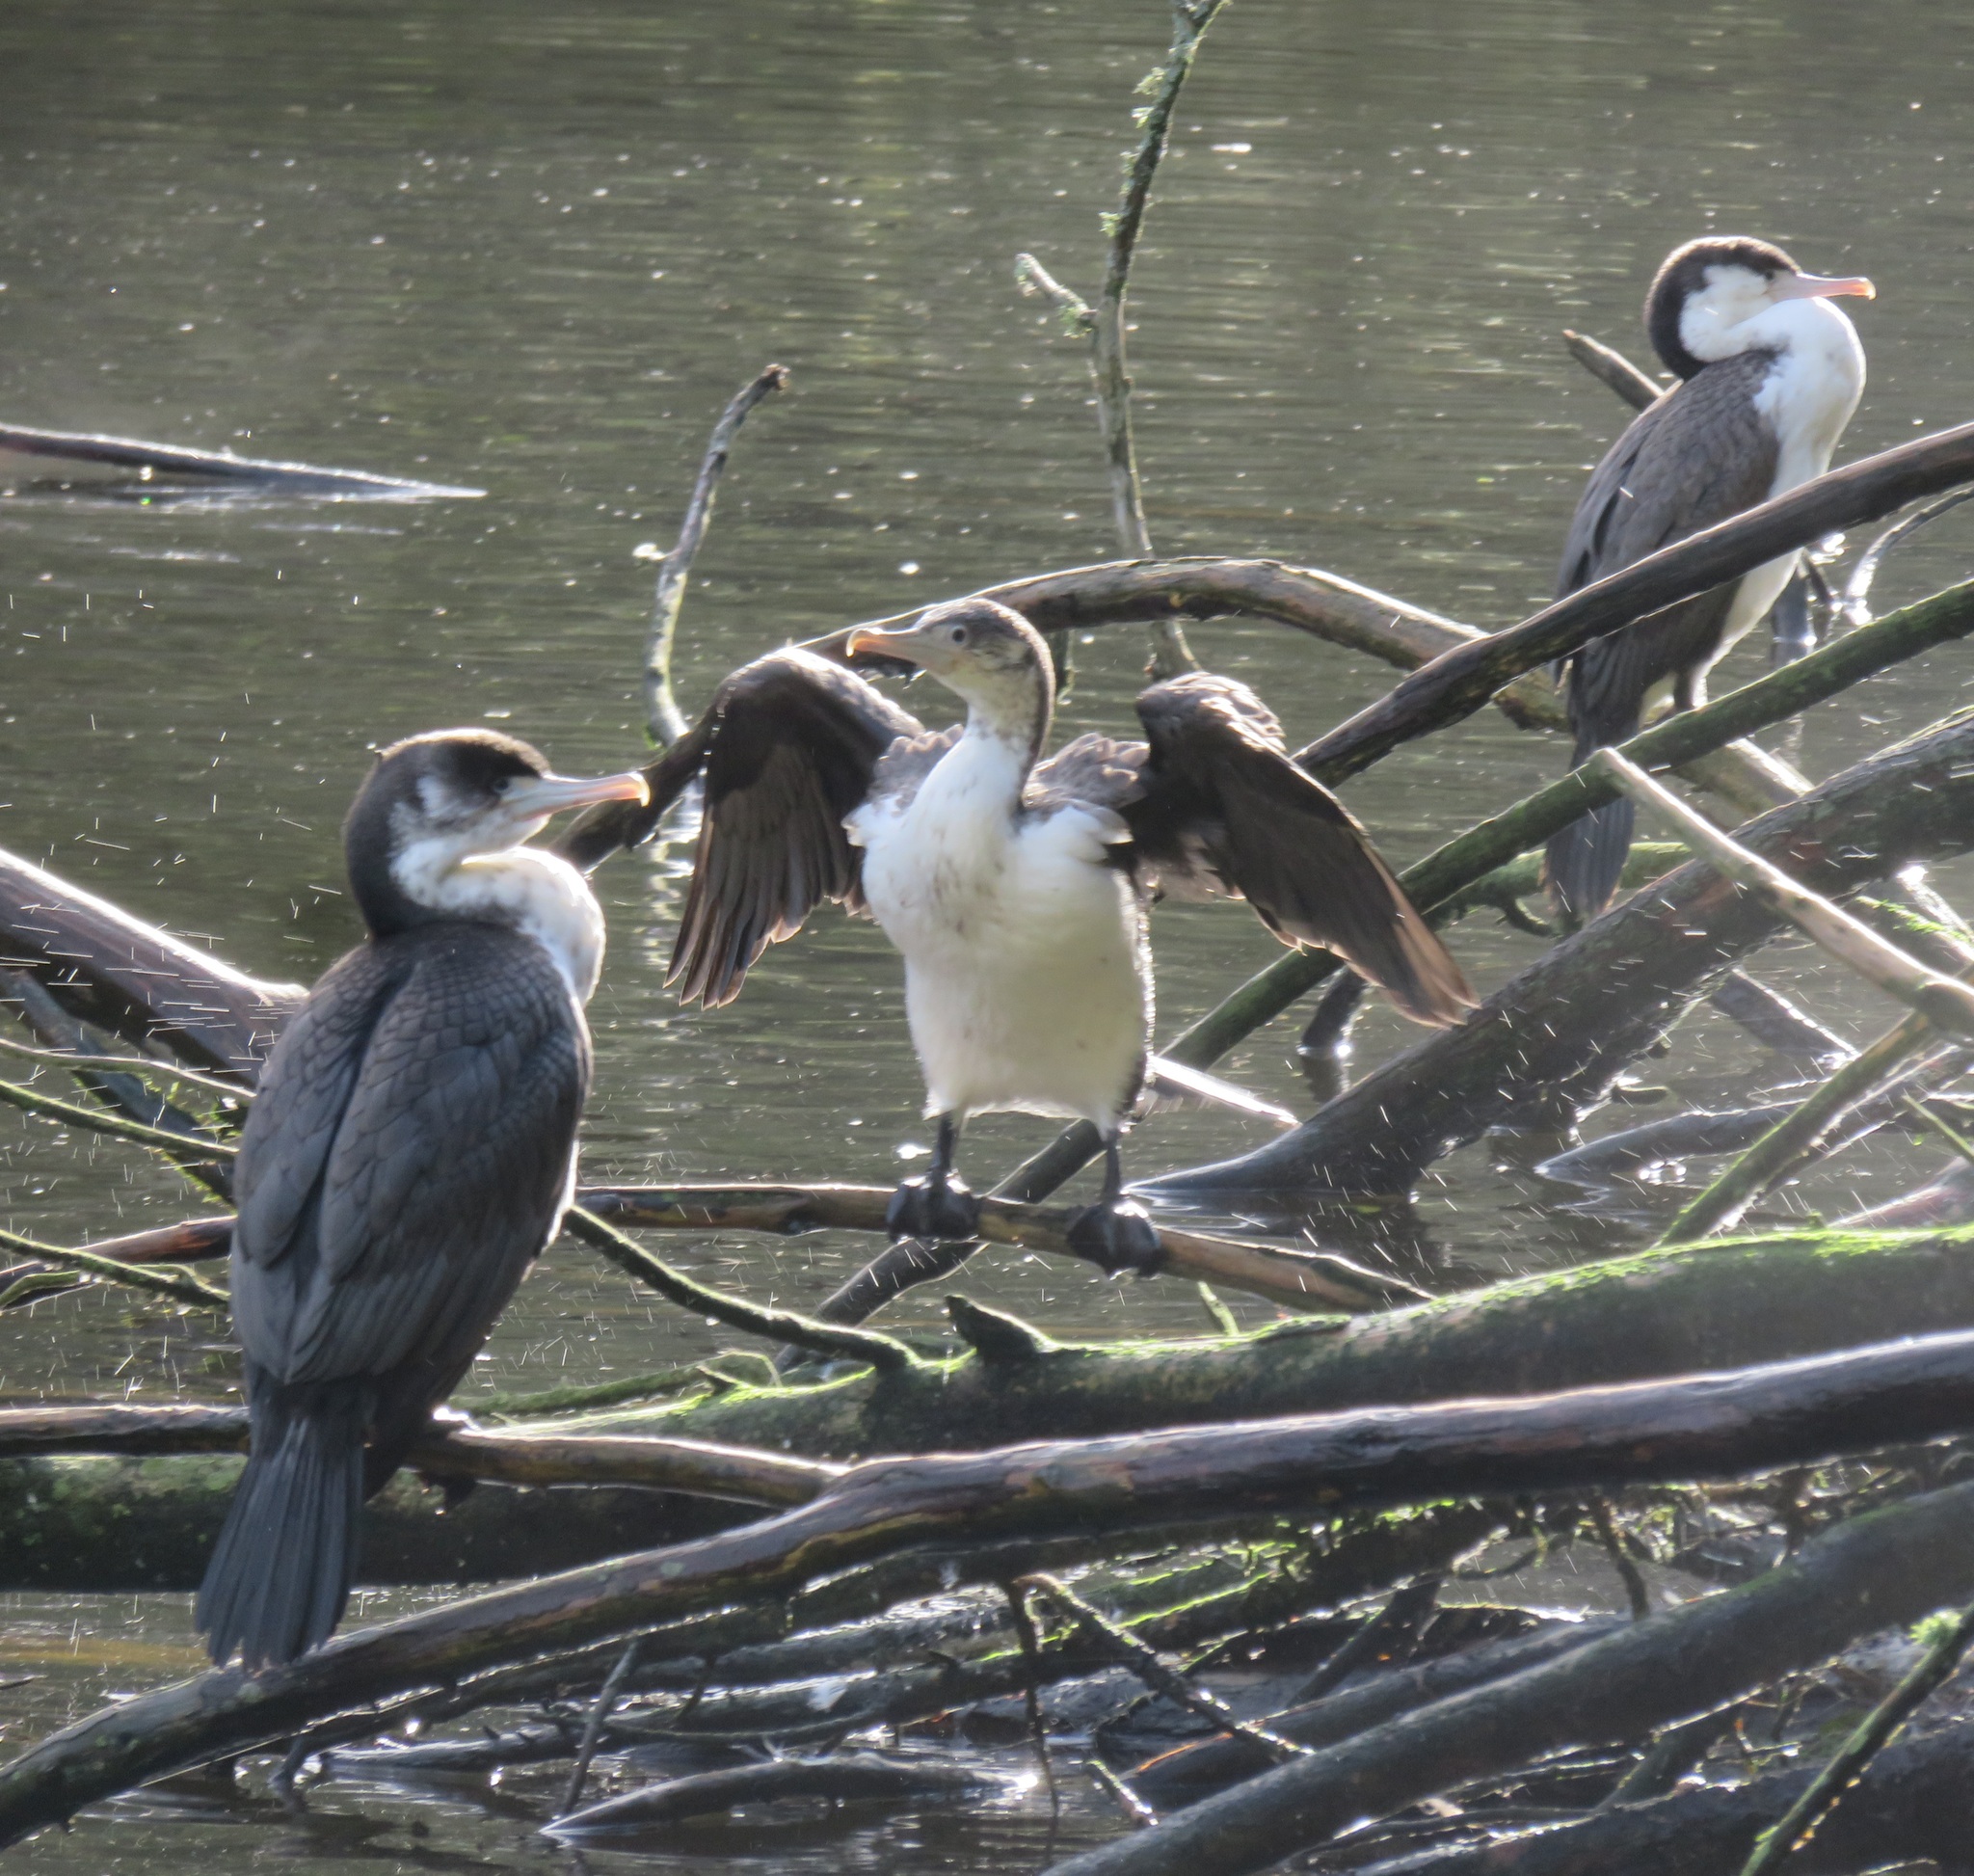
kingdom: Animalia
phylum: Chordata
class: Aves
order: Suliformes
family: Phalacrocoracidae
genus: Phalacrocorax
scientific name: Phalacrocorax varius
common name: Pied cormorant
